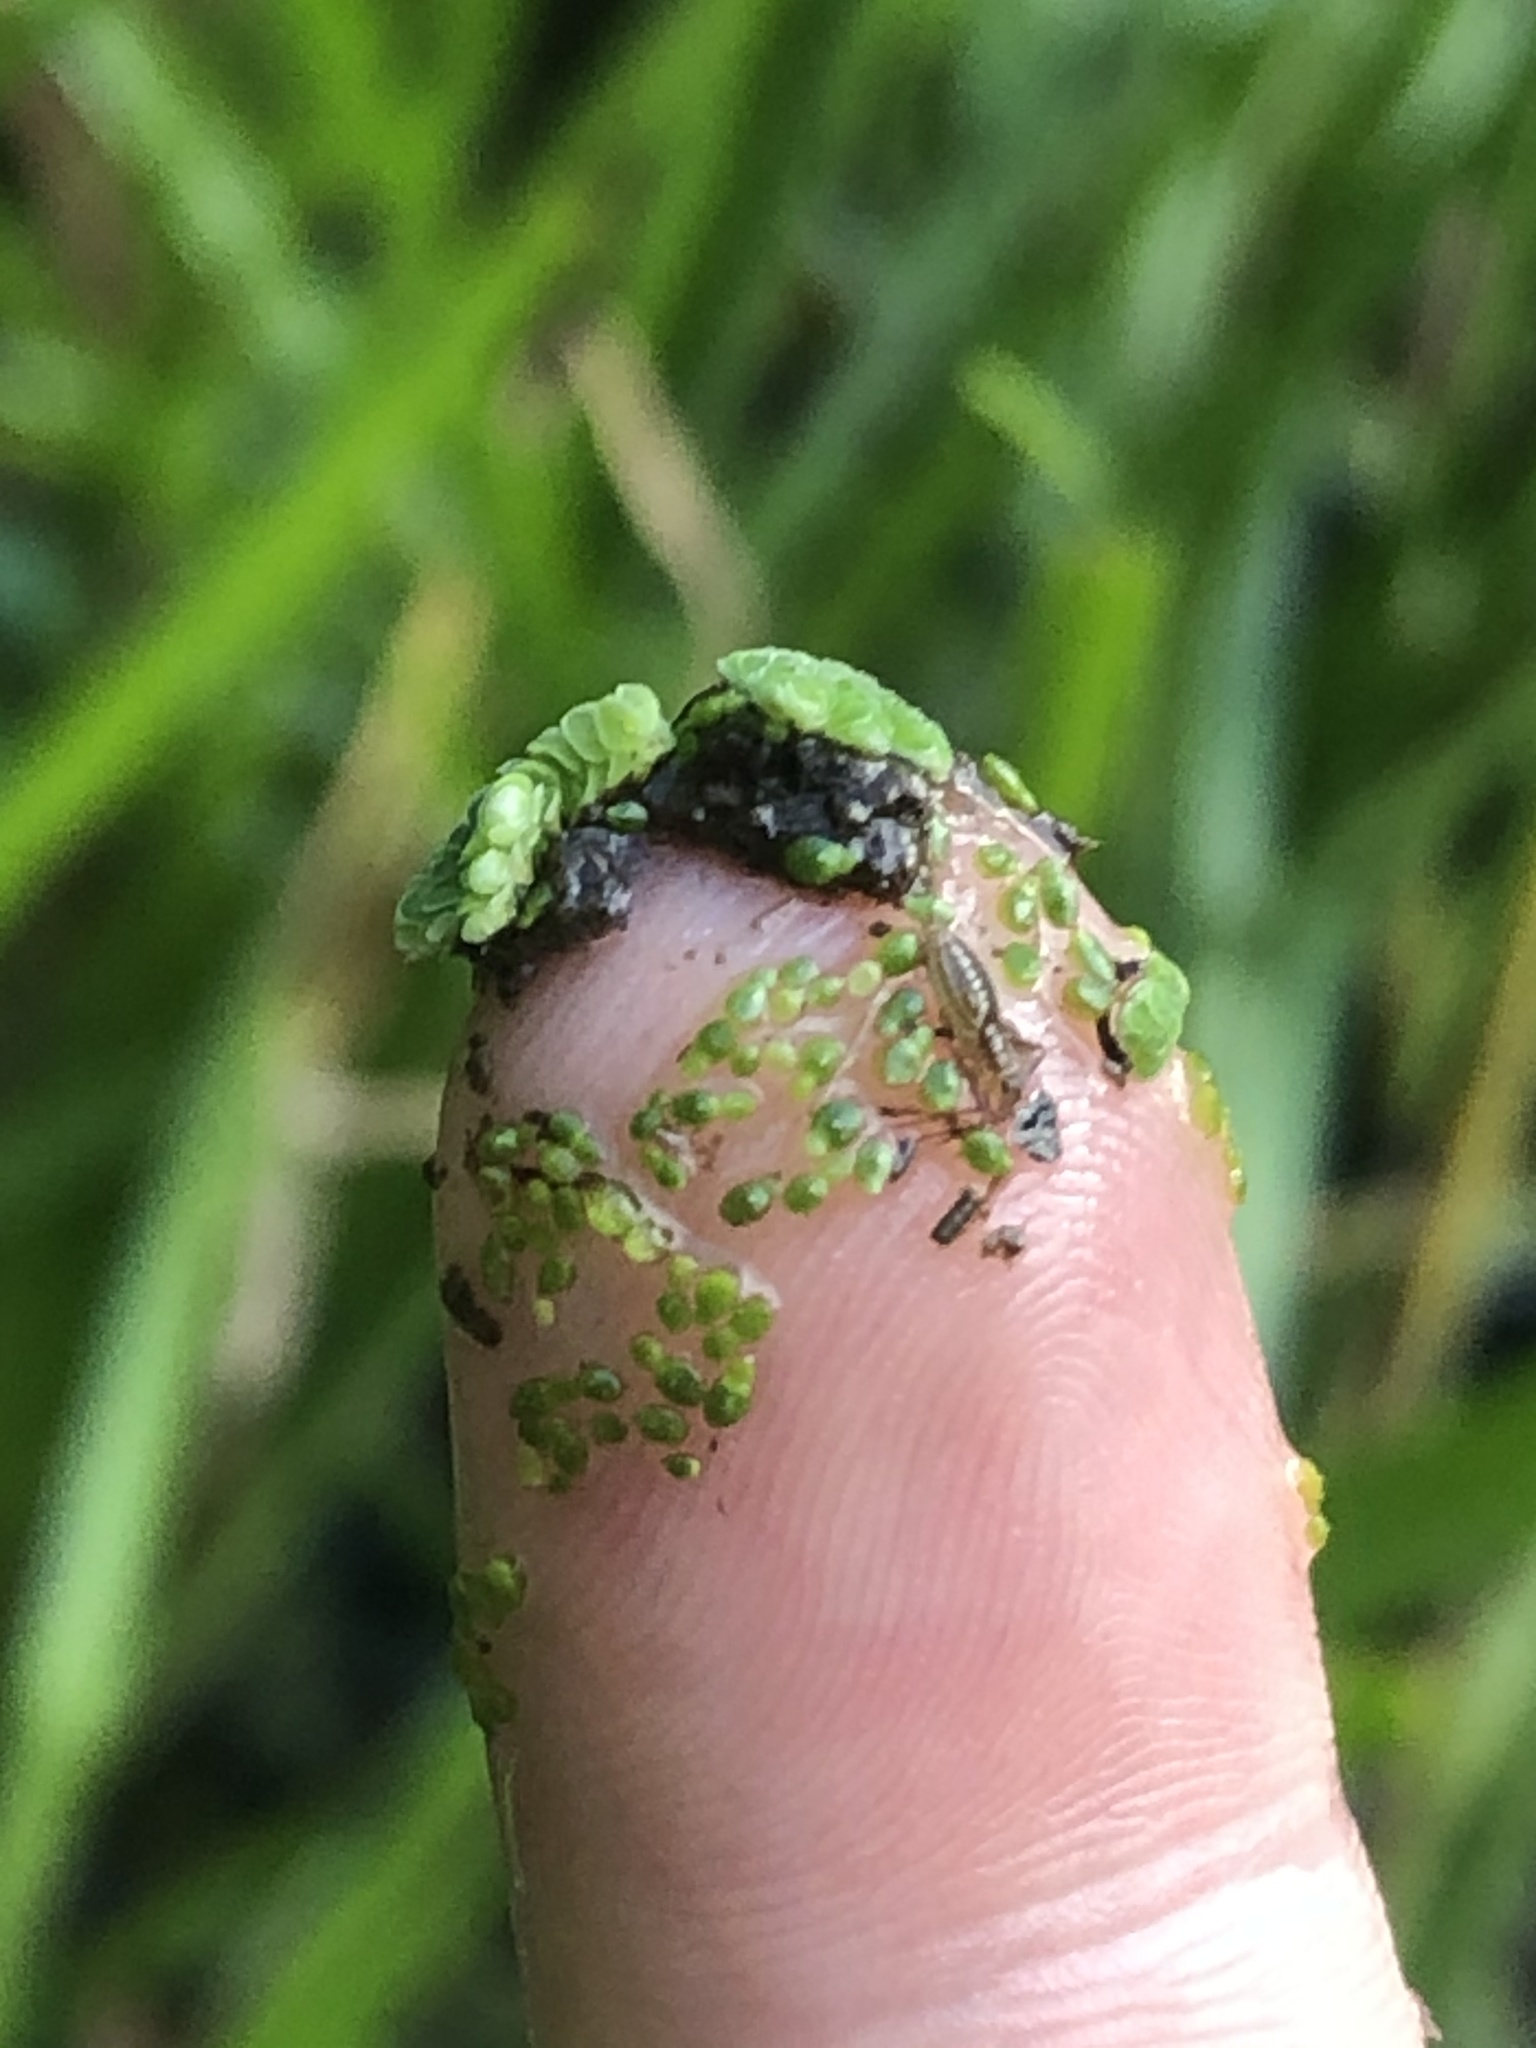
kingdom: Animalia
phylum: Arthropoda
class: Insecta
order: Hemiptera
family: Mesoveliidae
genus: Mesovelia
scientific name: Mesovelia mulsanti
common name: Water treaders
